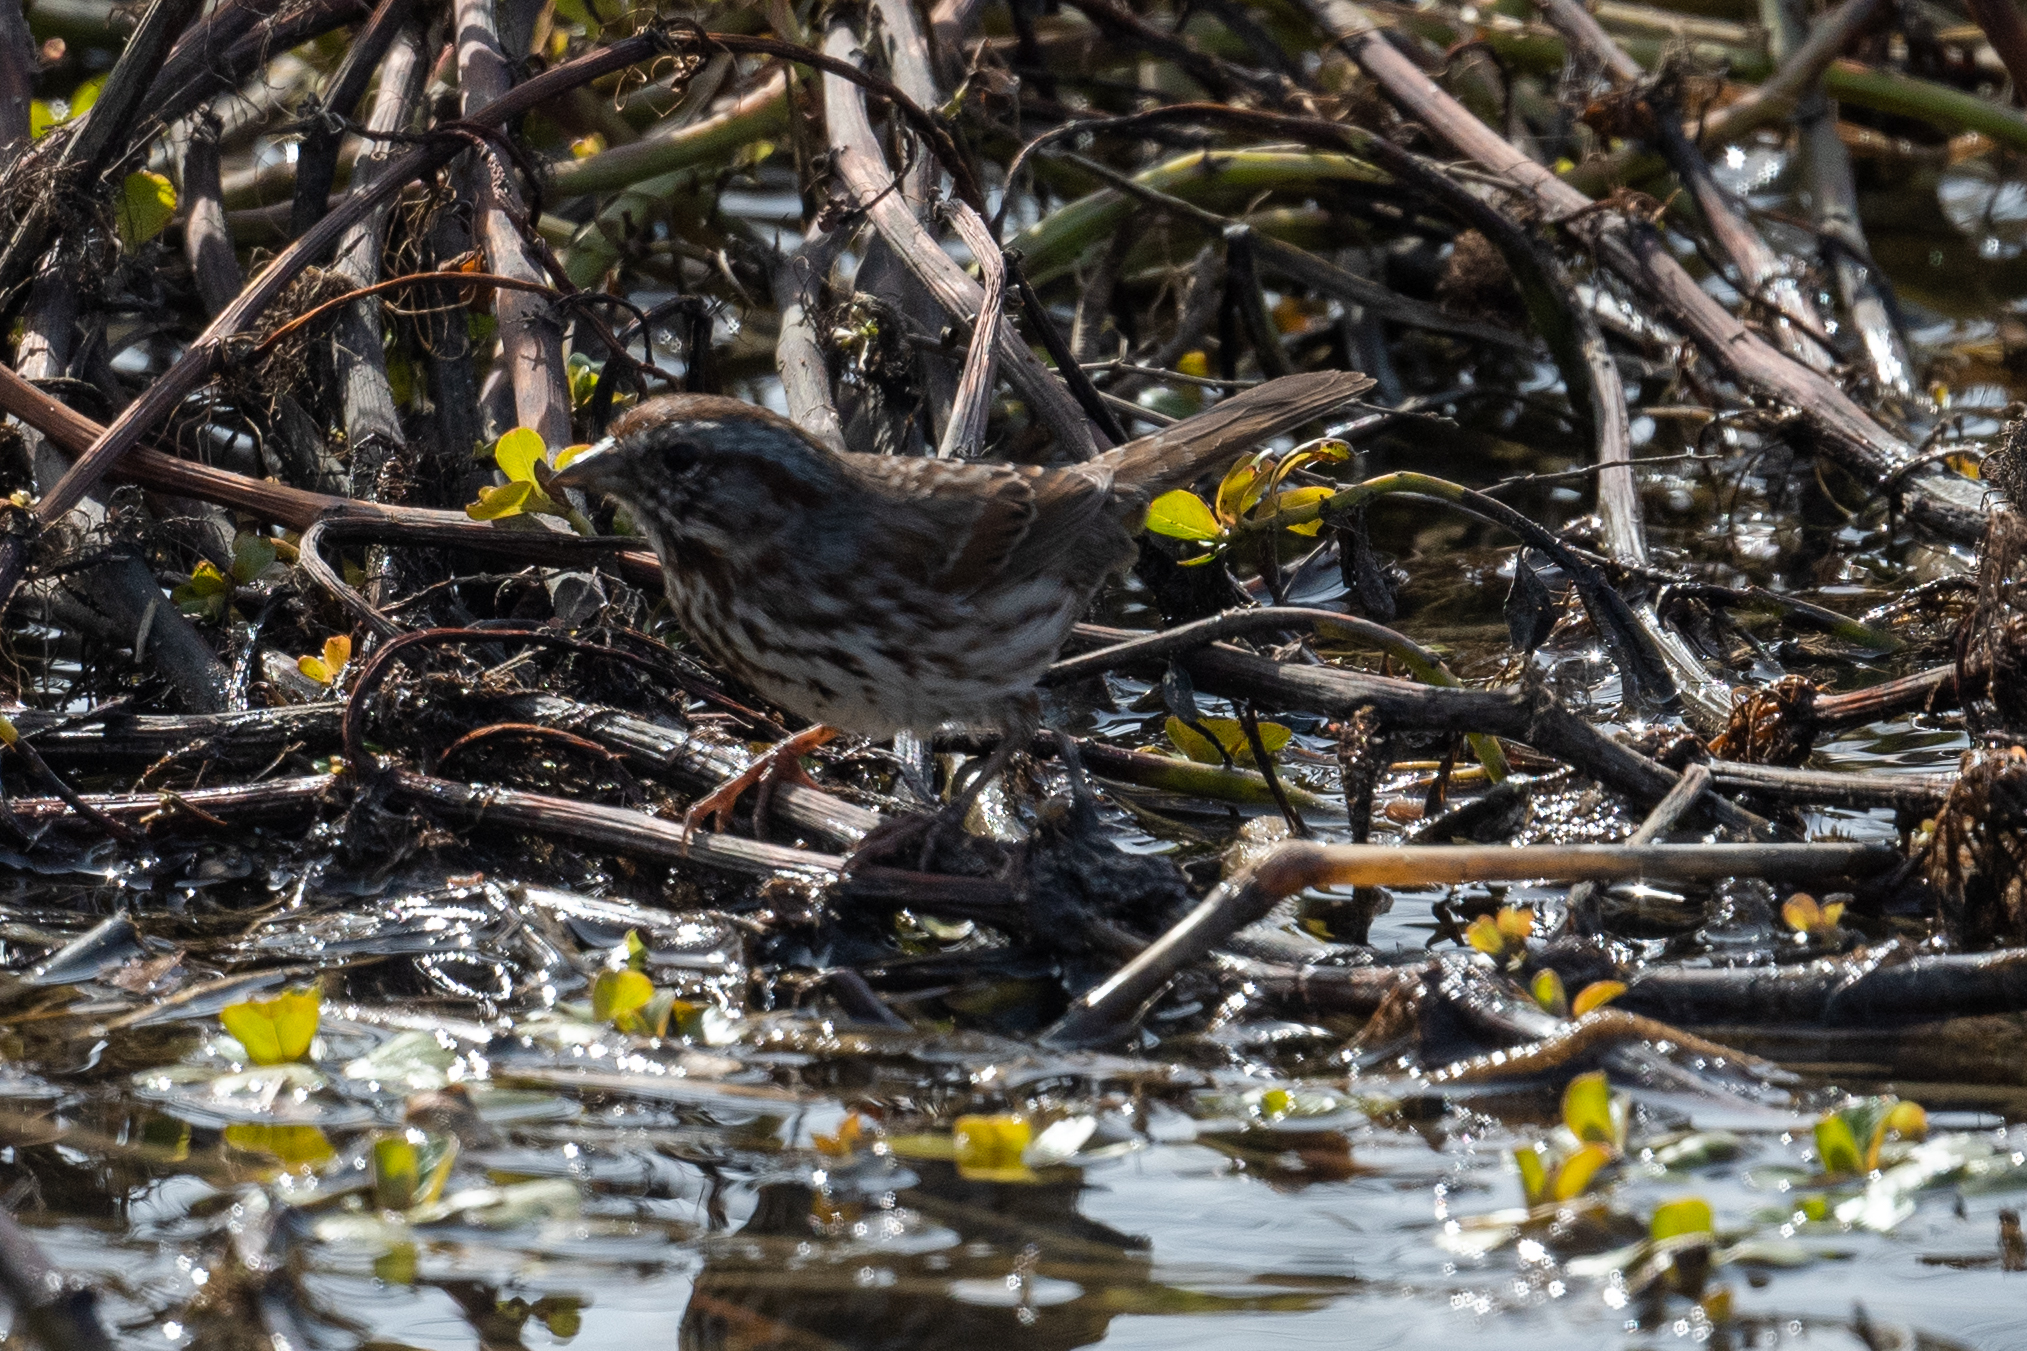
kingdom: Animalia
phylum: Chordata
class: Aves
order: Passeriformes
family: Passerellidae
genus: Melospiza
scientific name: Melospiza melodia
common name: Song sparrow
